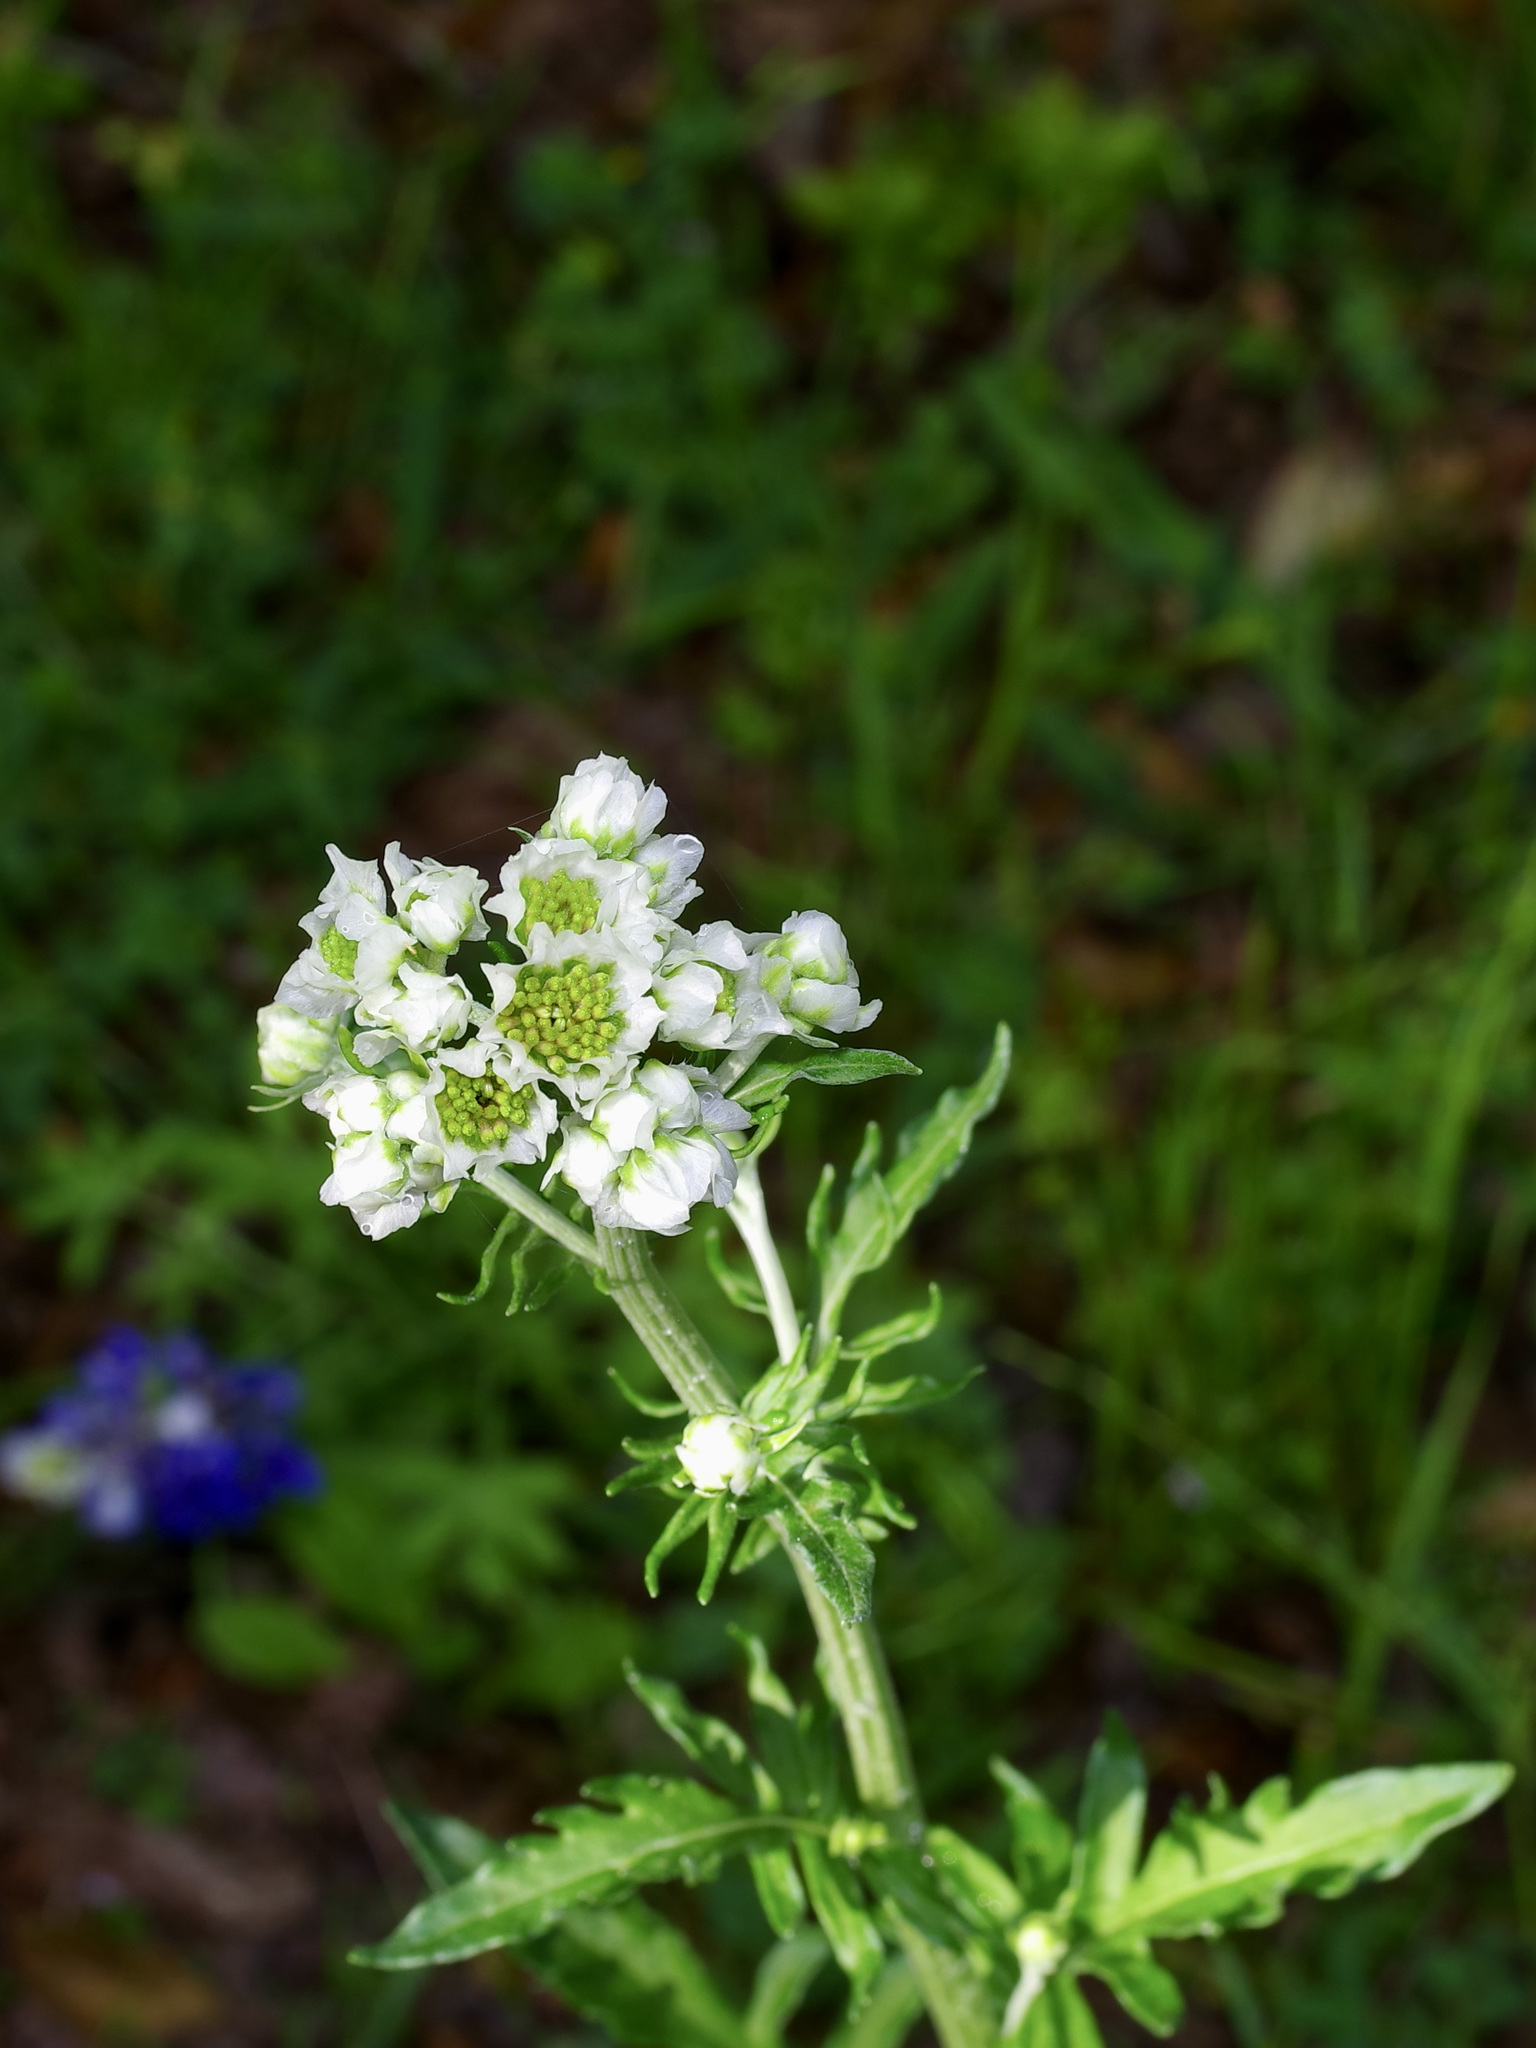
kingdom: Plantae
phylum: Tracheophyta
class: Magnoliopsida
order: Asterales
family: Asteraceae
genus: Hymenopappus
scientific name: Hymenopappus artemisiifolius
